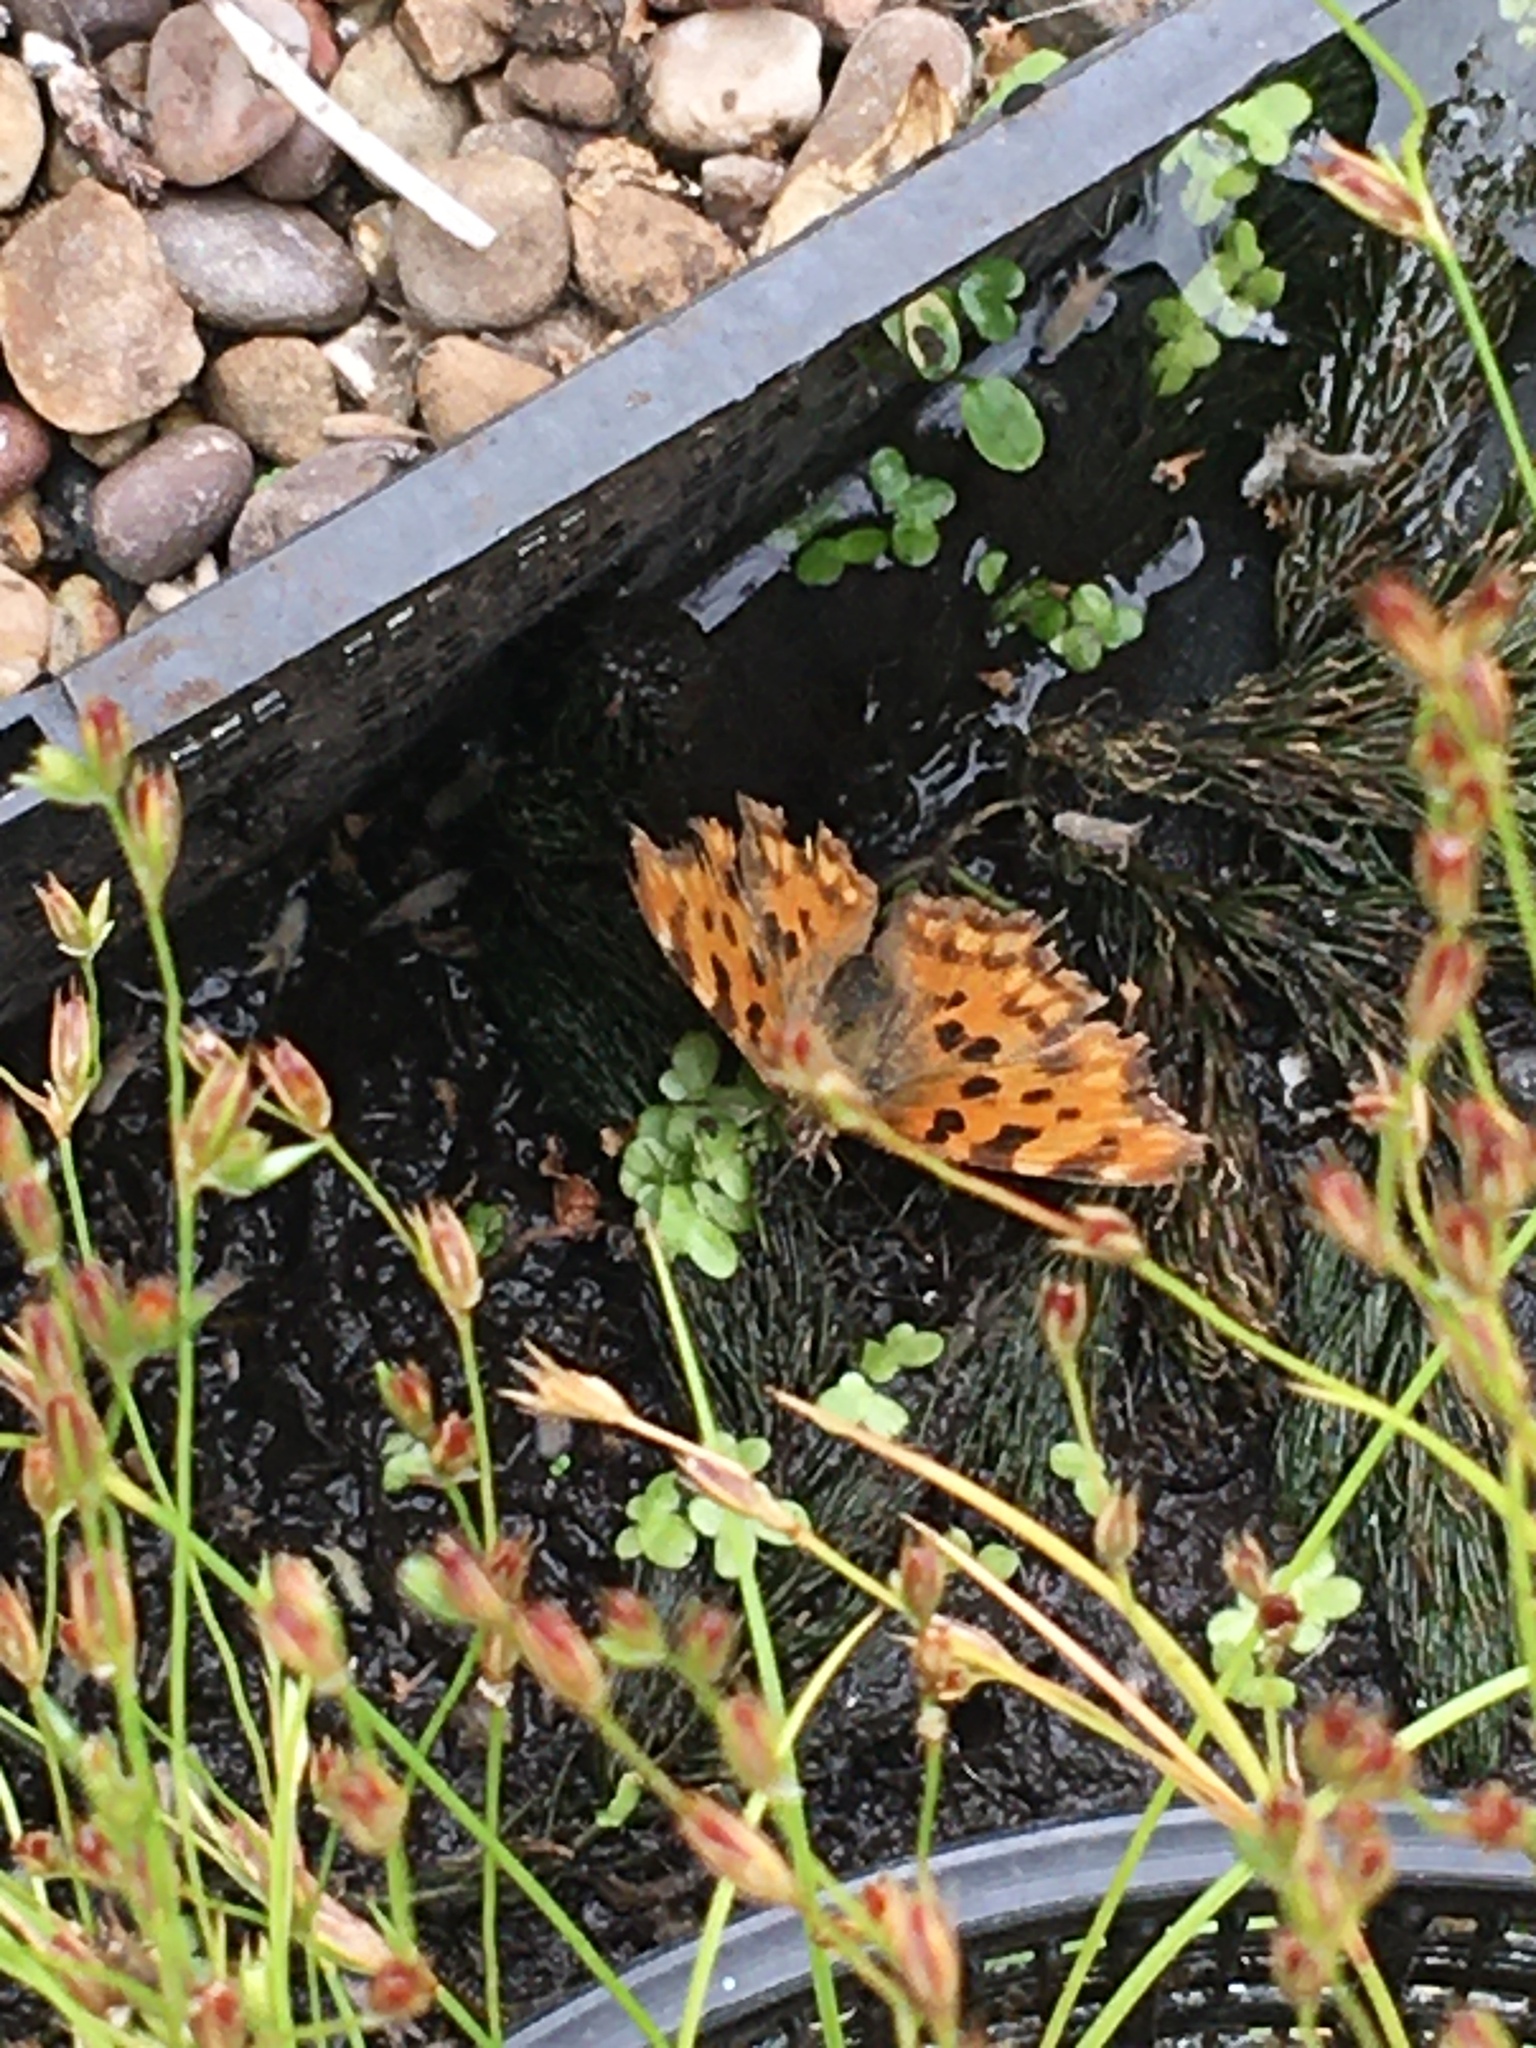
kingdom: Animalia
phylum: Arthropoda
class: Insecta
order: Lepidoptera
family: Nymphalidae
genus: Polygonia
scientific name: Polygonia c-album
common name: Comma
